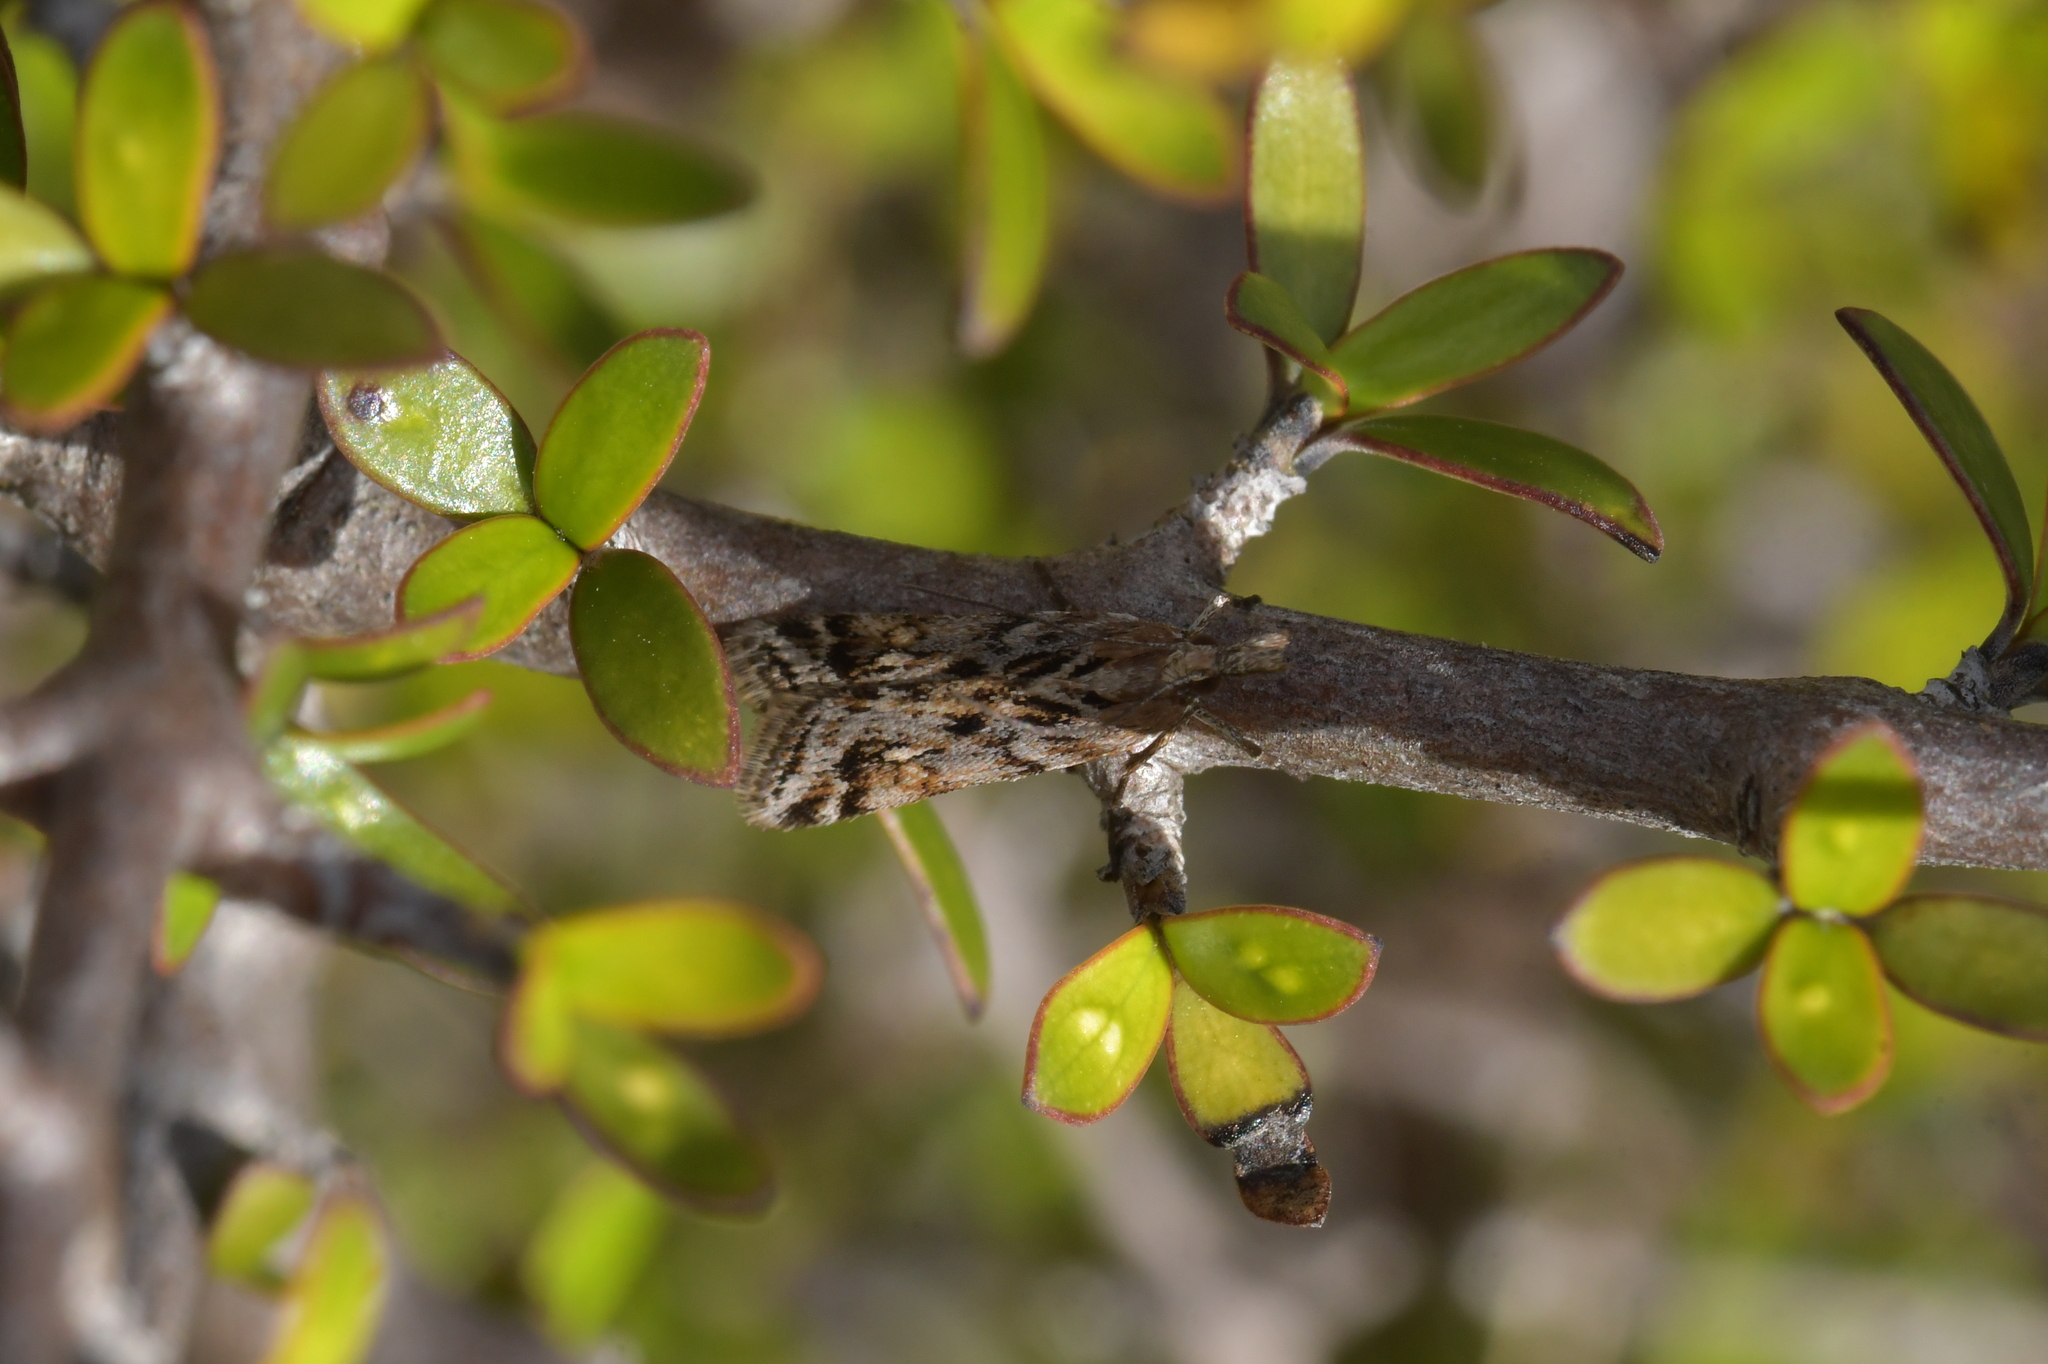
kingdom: Animalia
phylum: Arthropoda
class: Insecta
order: Lepidoptera
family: Crambidae
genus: Scoparia
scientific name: Scoparia exilis
